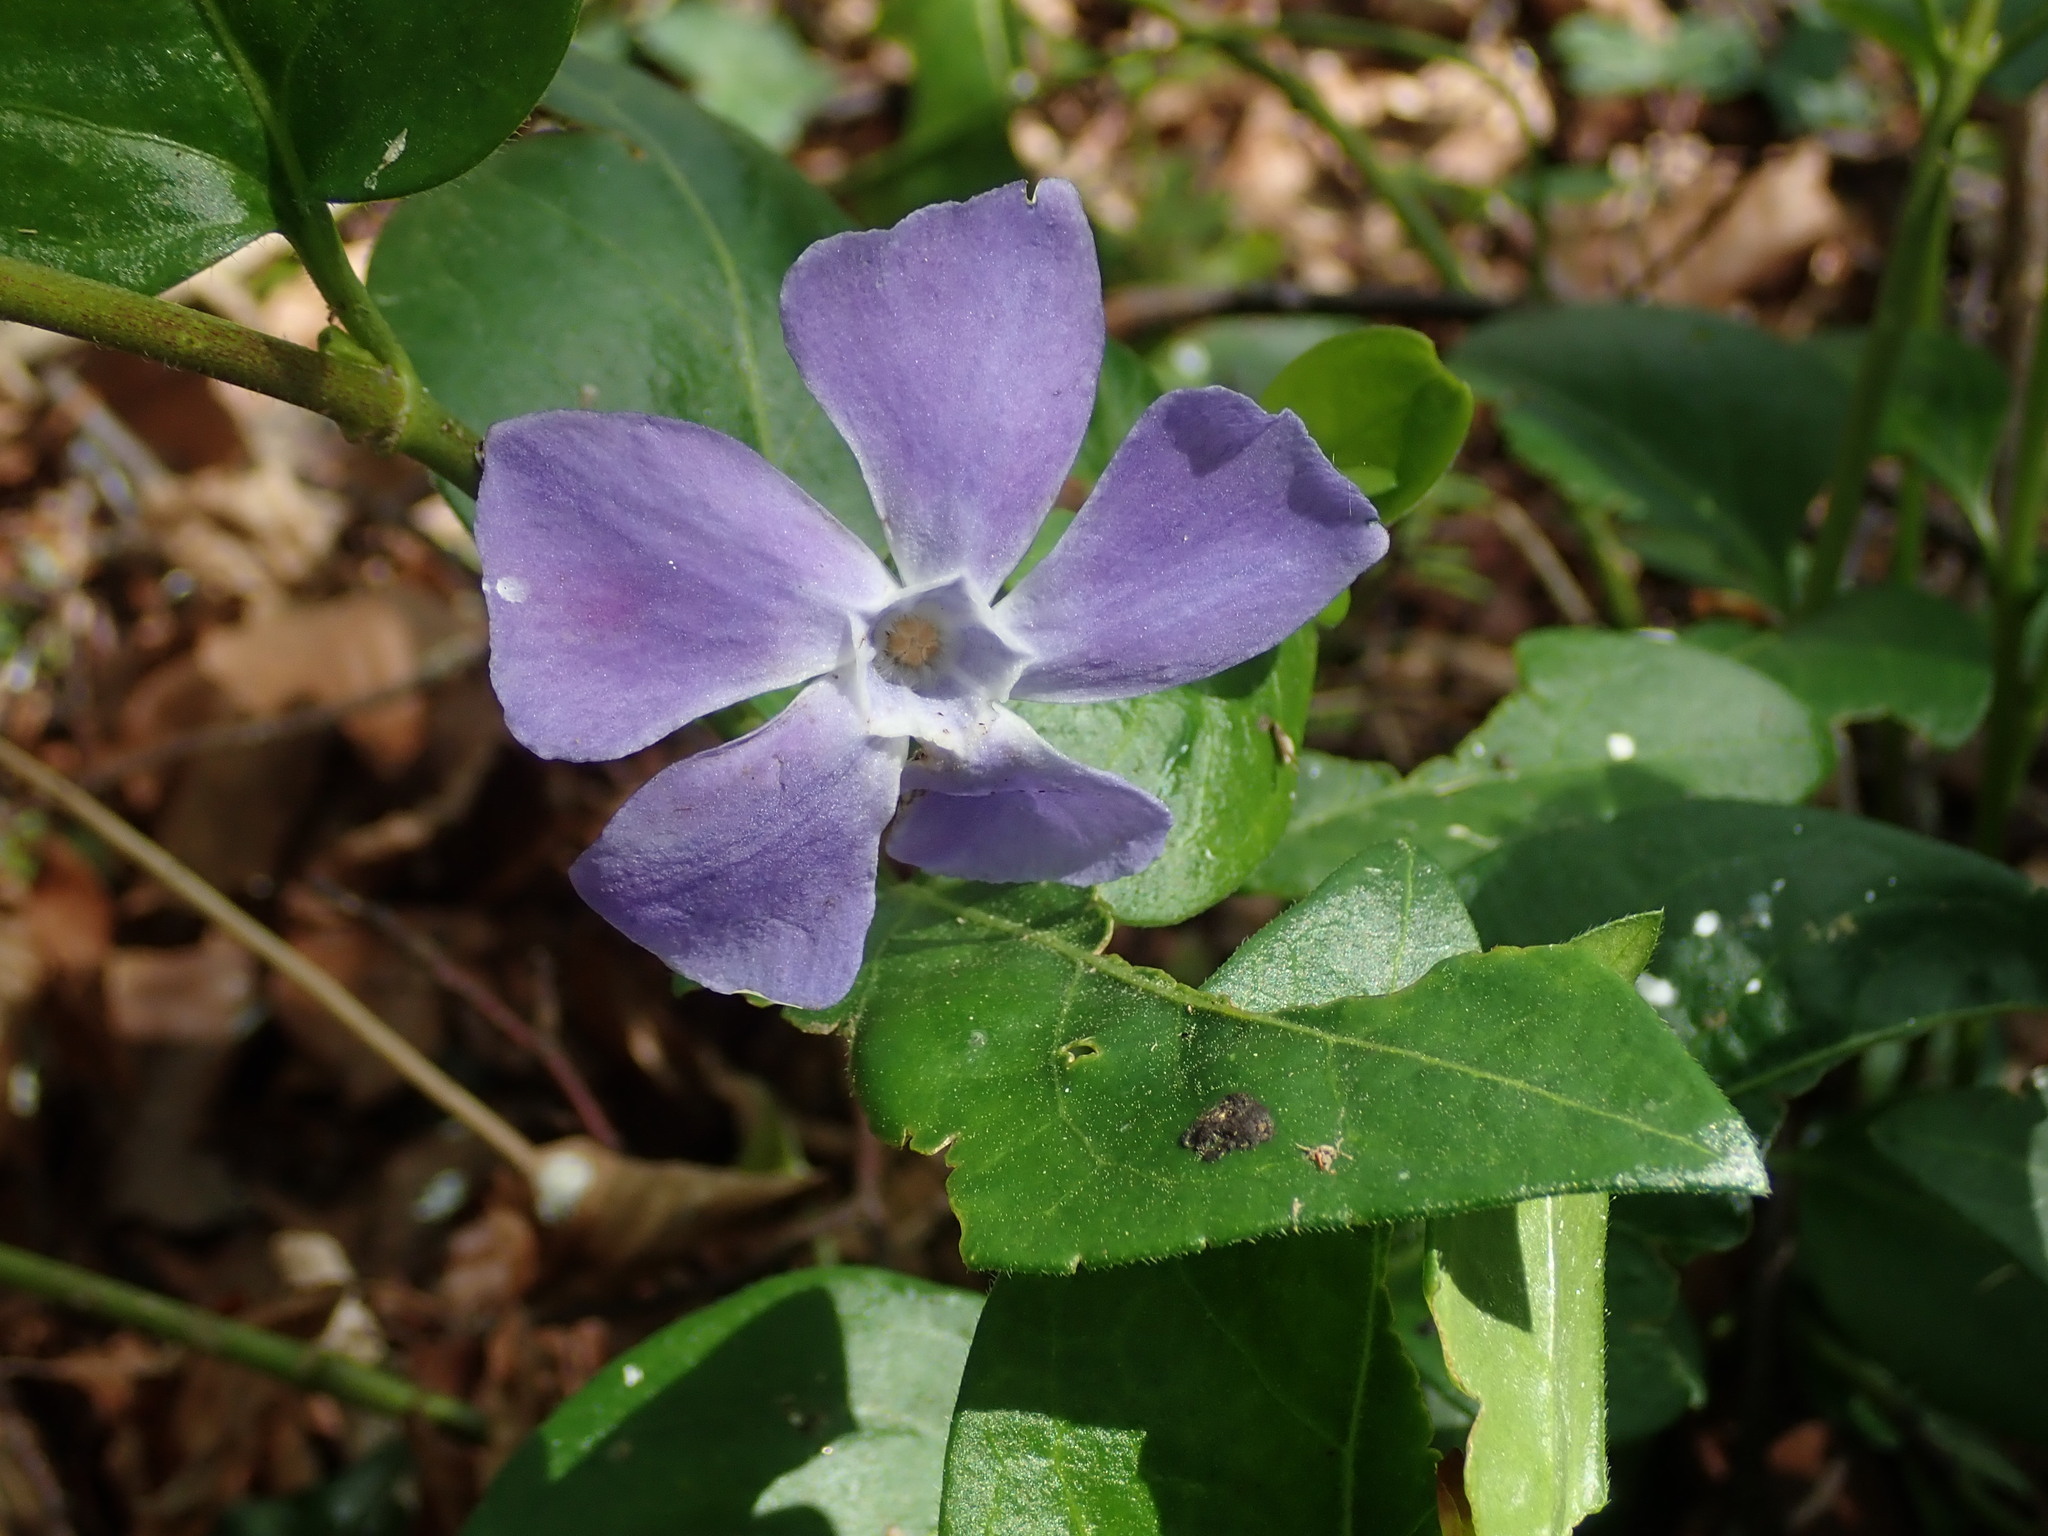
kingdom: Plantae
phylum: Tracheophyta
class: Magnoliopsida
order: Gentianales
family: Apocynaceae
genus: Vinca
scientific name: Vinca major
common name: Greater periwinkle
